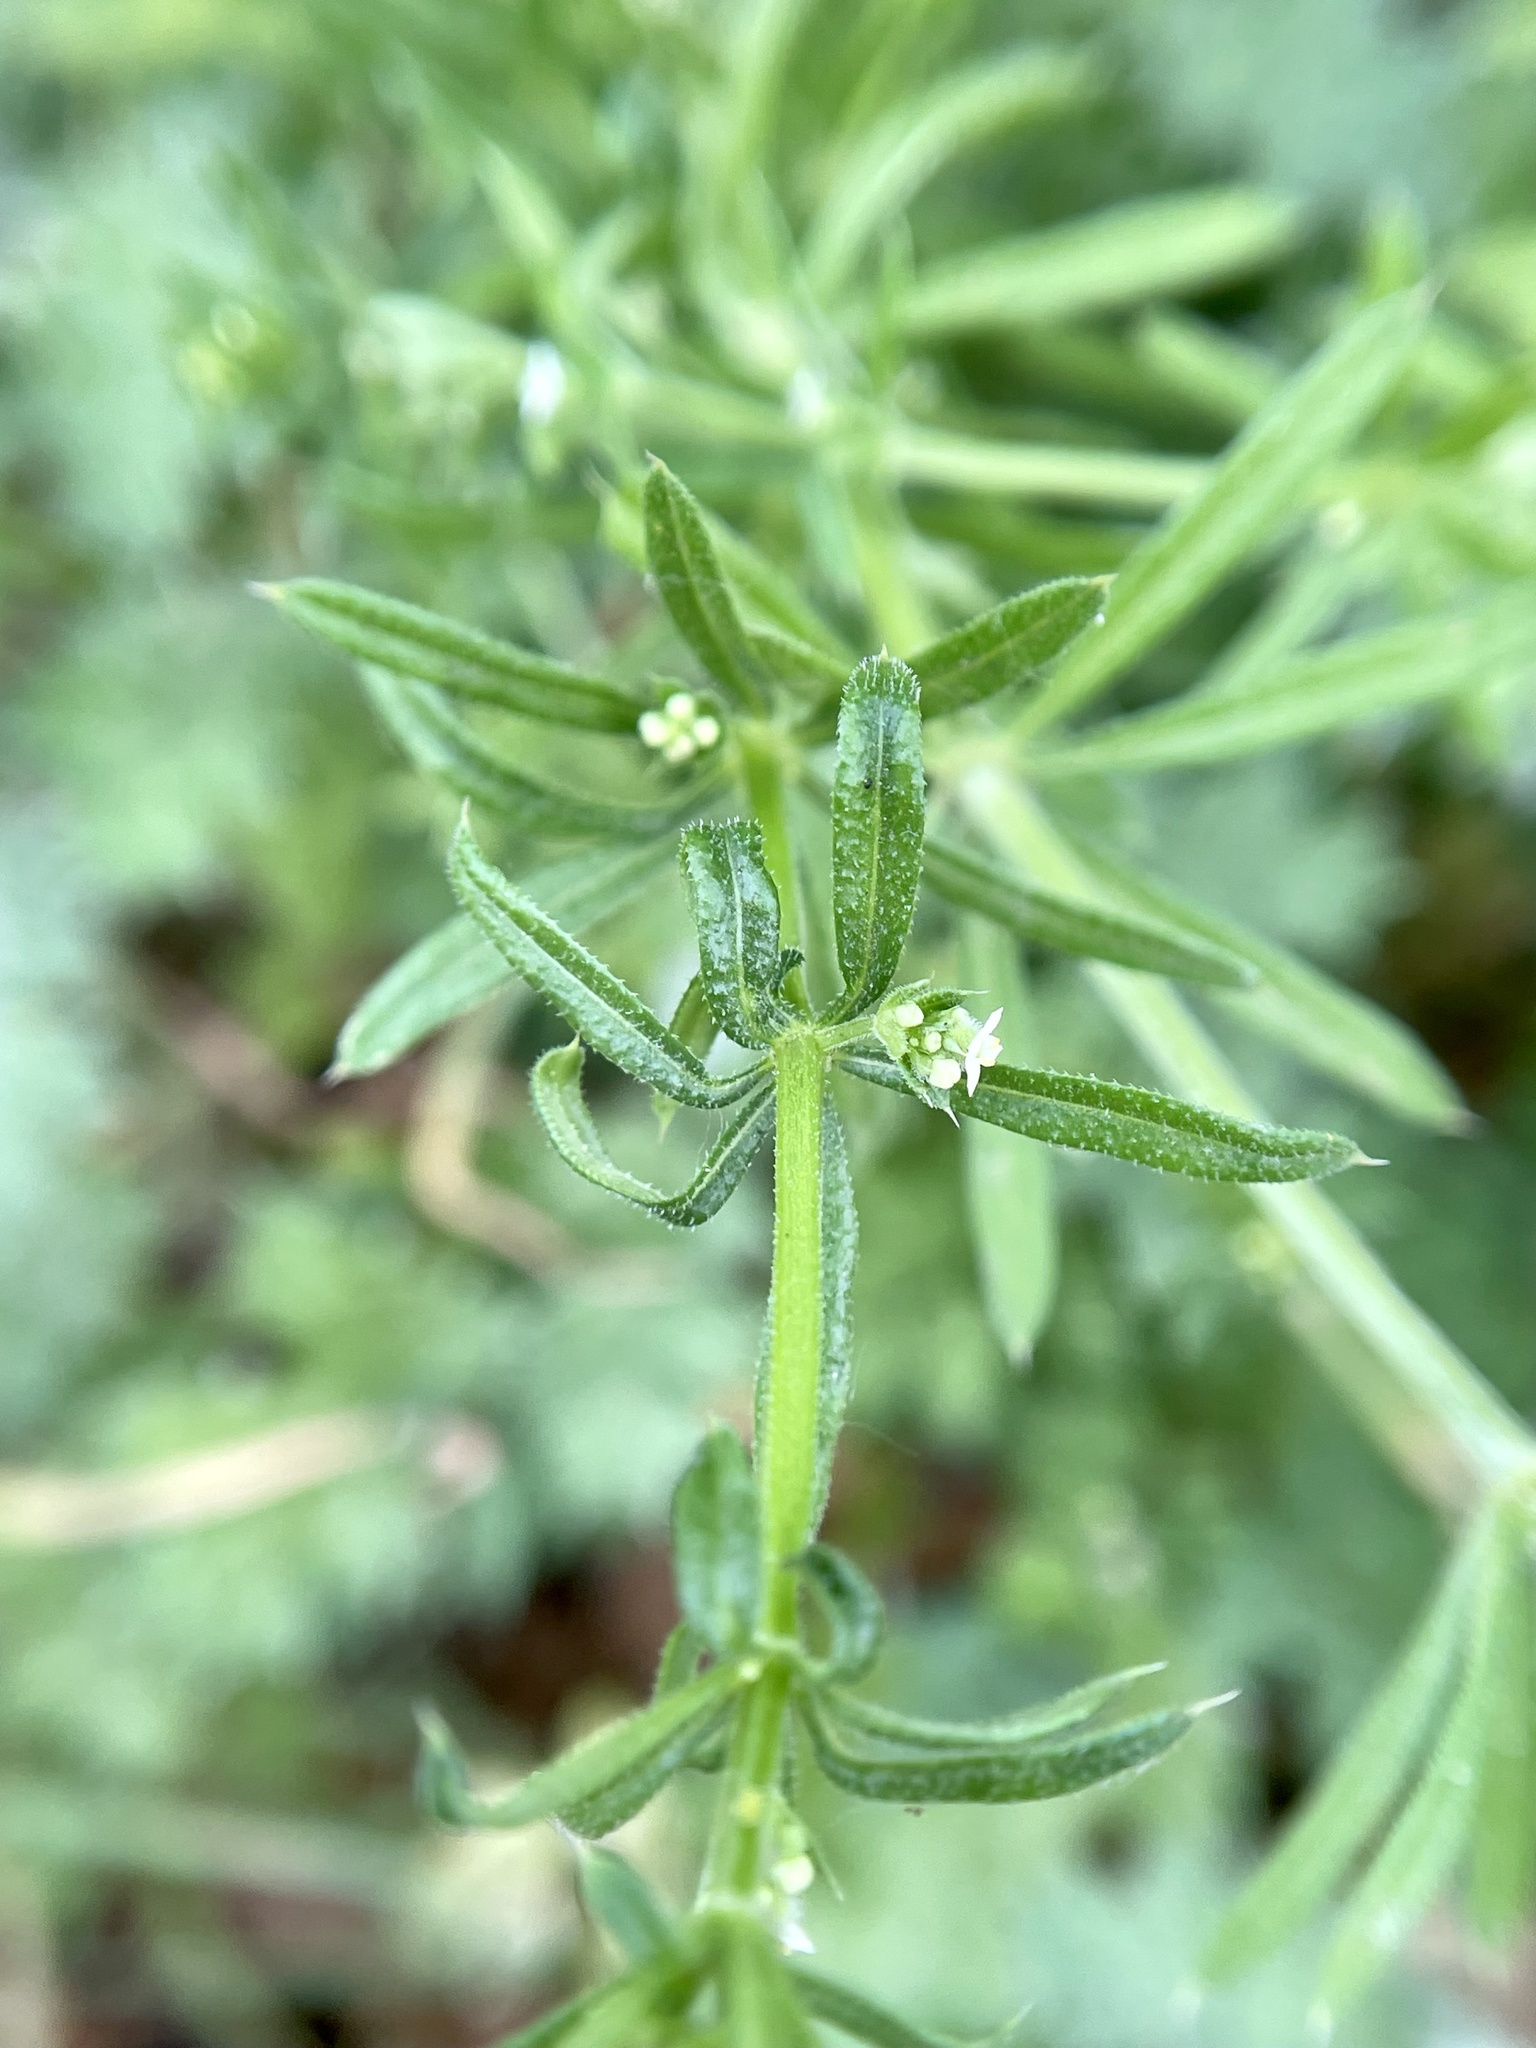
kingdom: Plantae
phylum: Tracheophyta
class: Magnoliopsida
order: Gentianales
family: Rubiaceae
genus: Galium
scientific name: Galium aparine
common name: Cleavers
